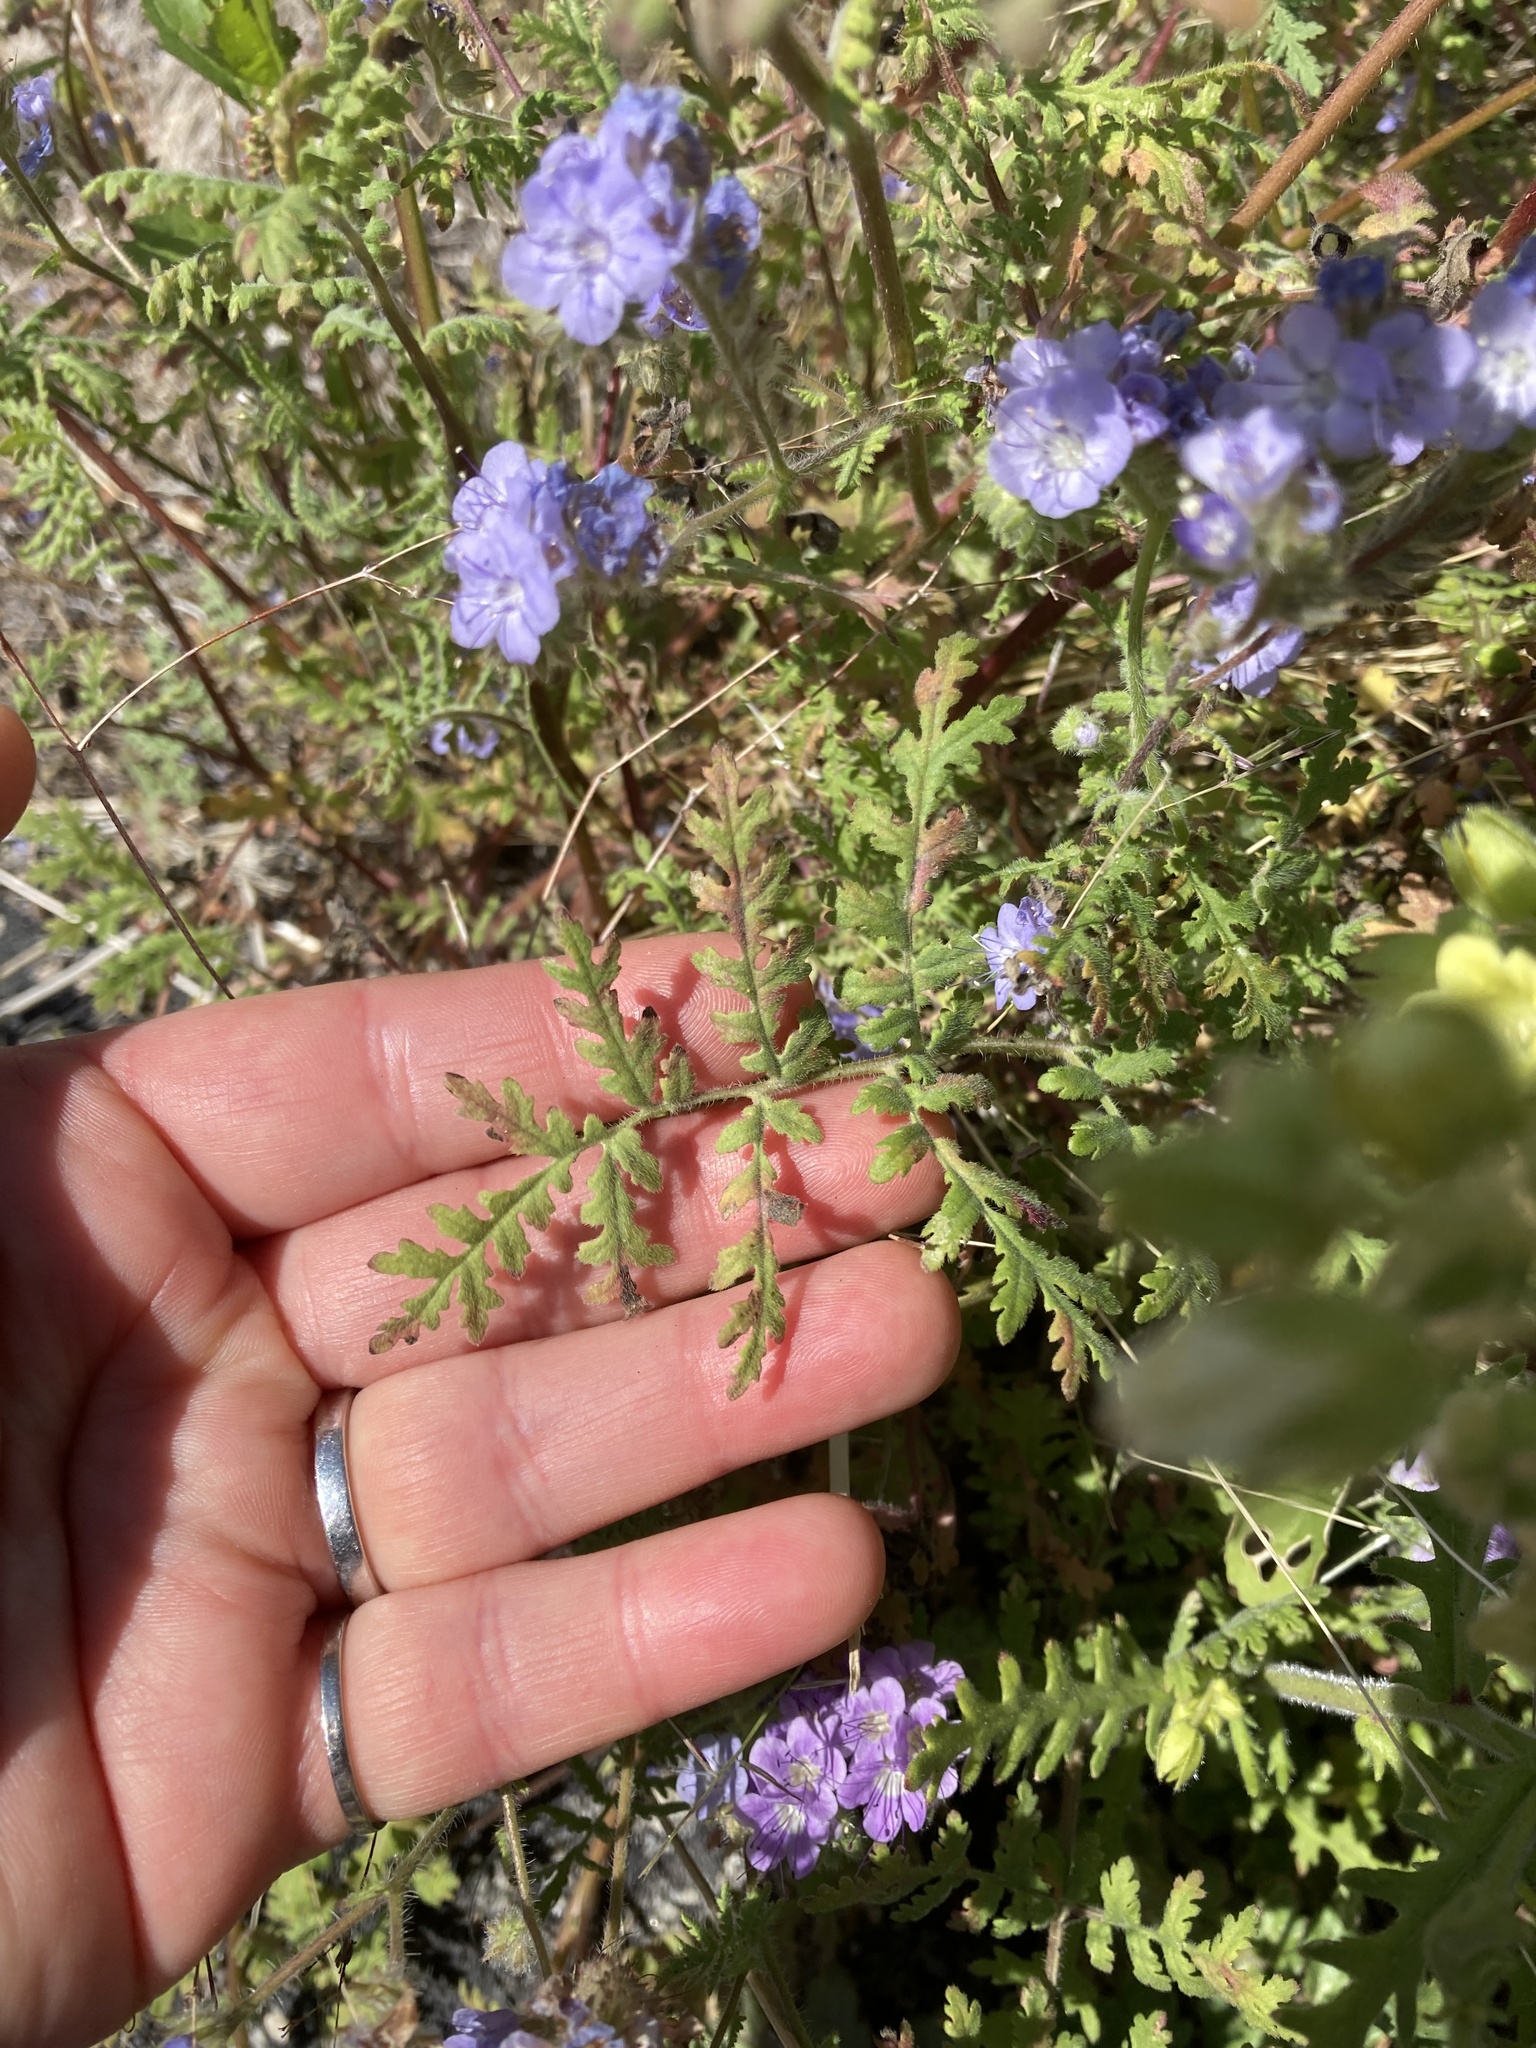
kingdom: Plantae
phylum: Tracheophyta
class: Magnoliopsida
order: Boraginales
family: Hydrophyllaceae
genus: Phacelia
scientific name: Phacelia distans
